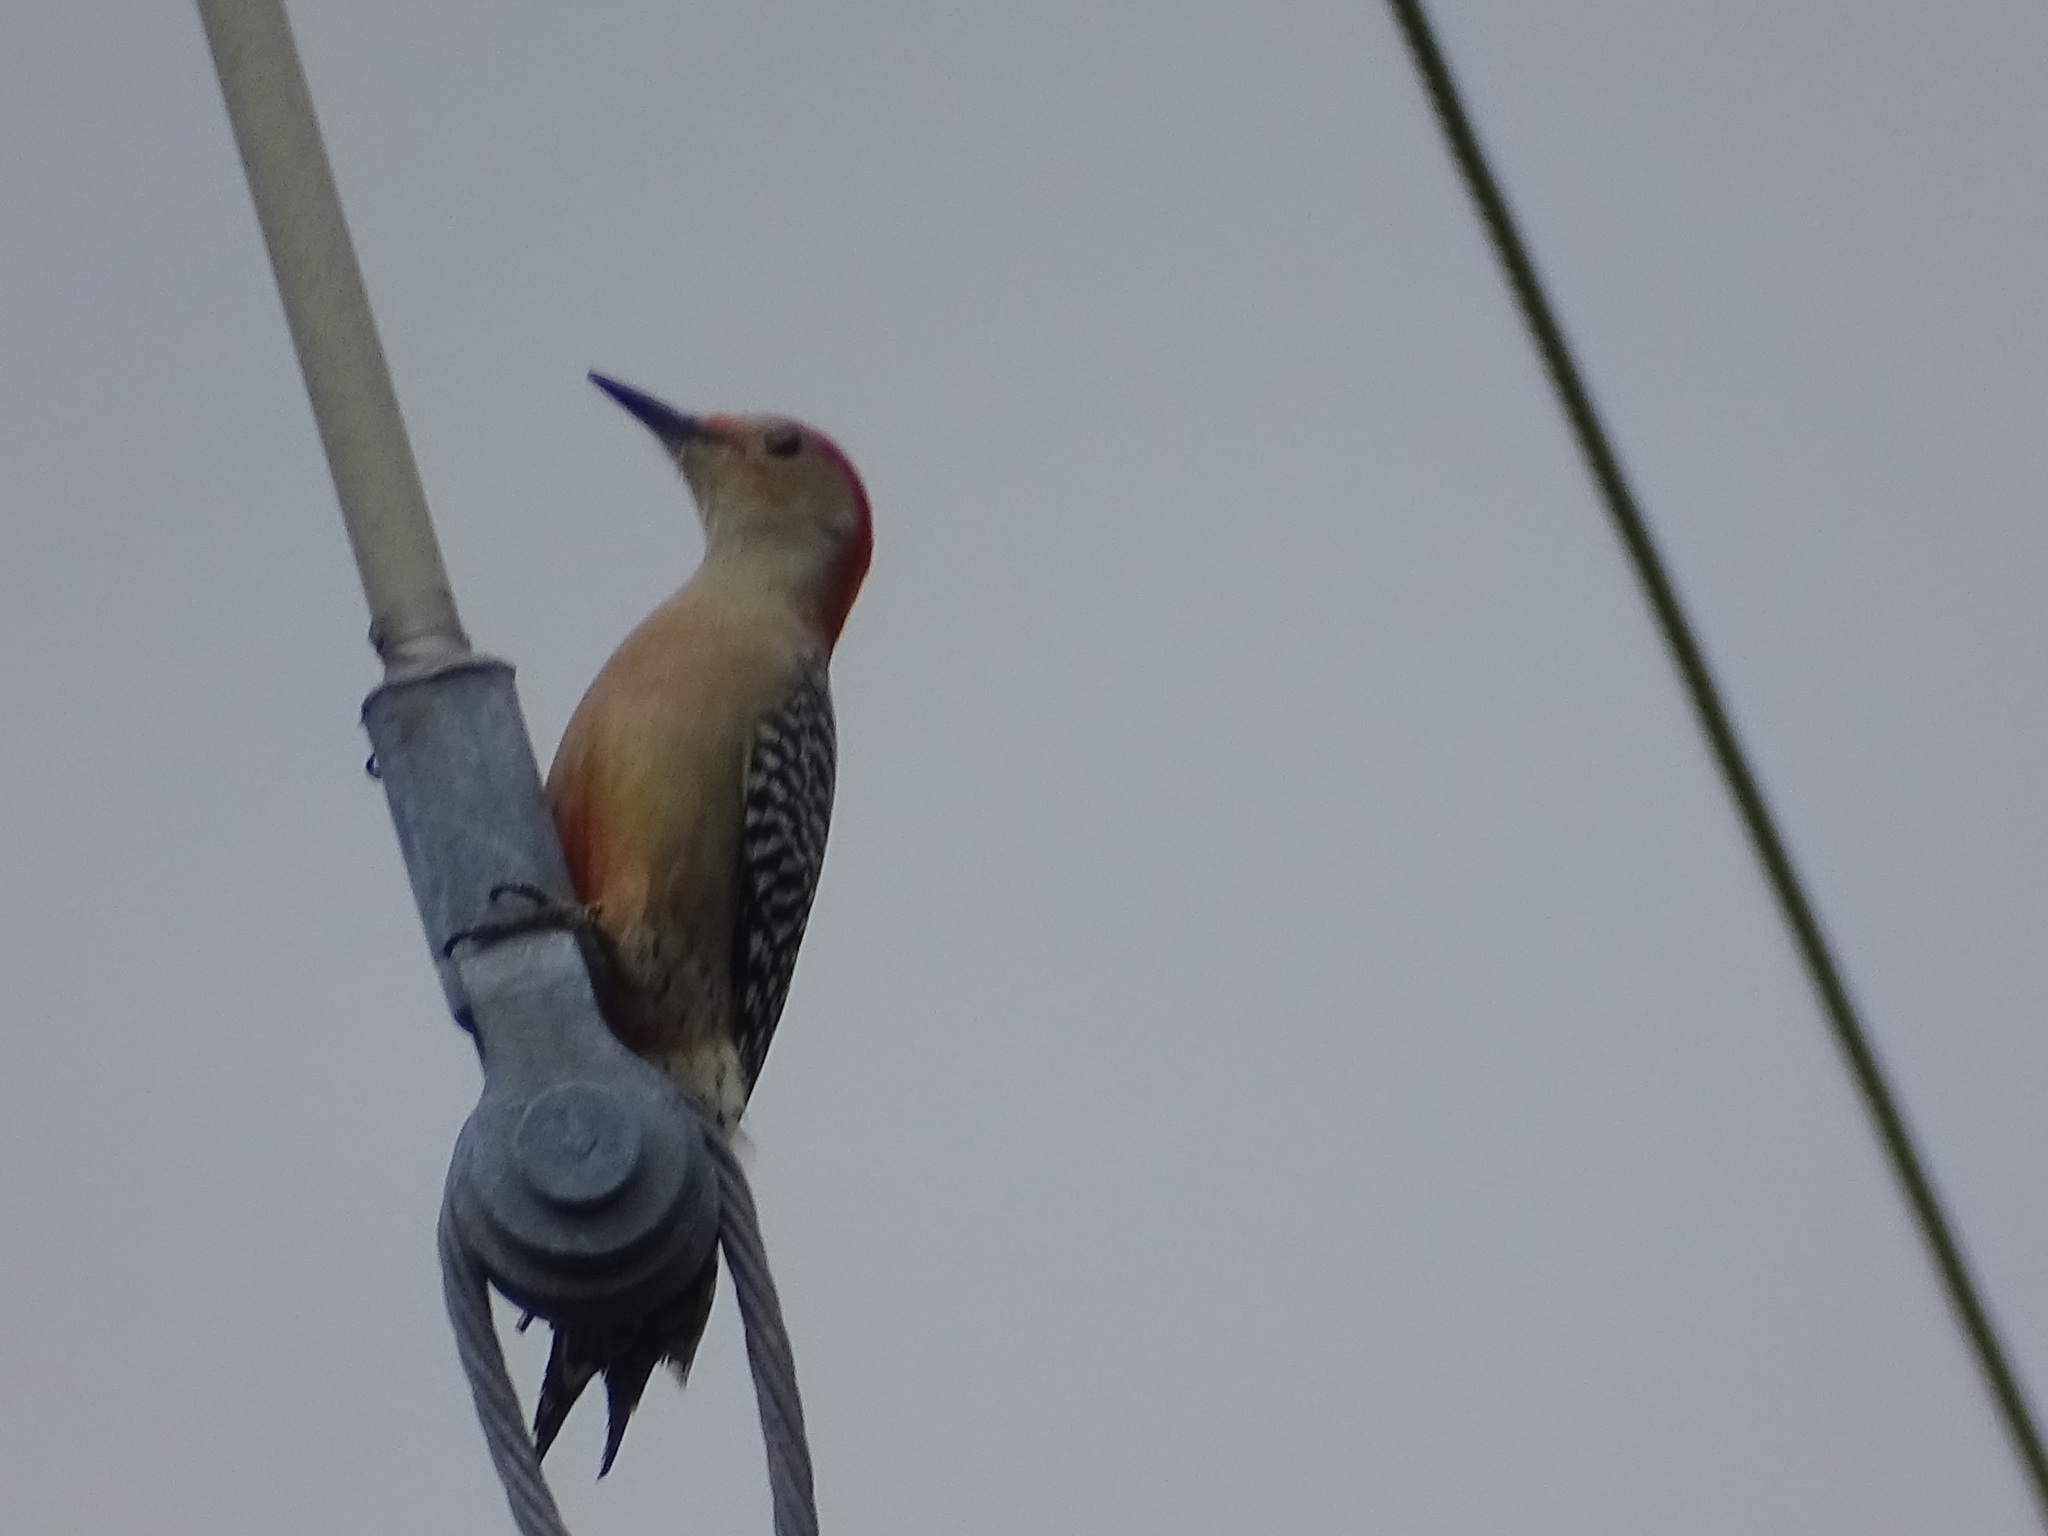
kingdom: Animalia
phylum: Chordata
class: Aves
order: Piciformes
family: Picidae
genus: Melanerpes
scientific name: Melanerpes carolinus
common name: Red-bellied woodpecker
